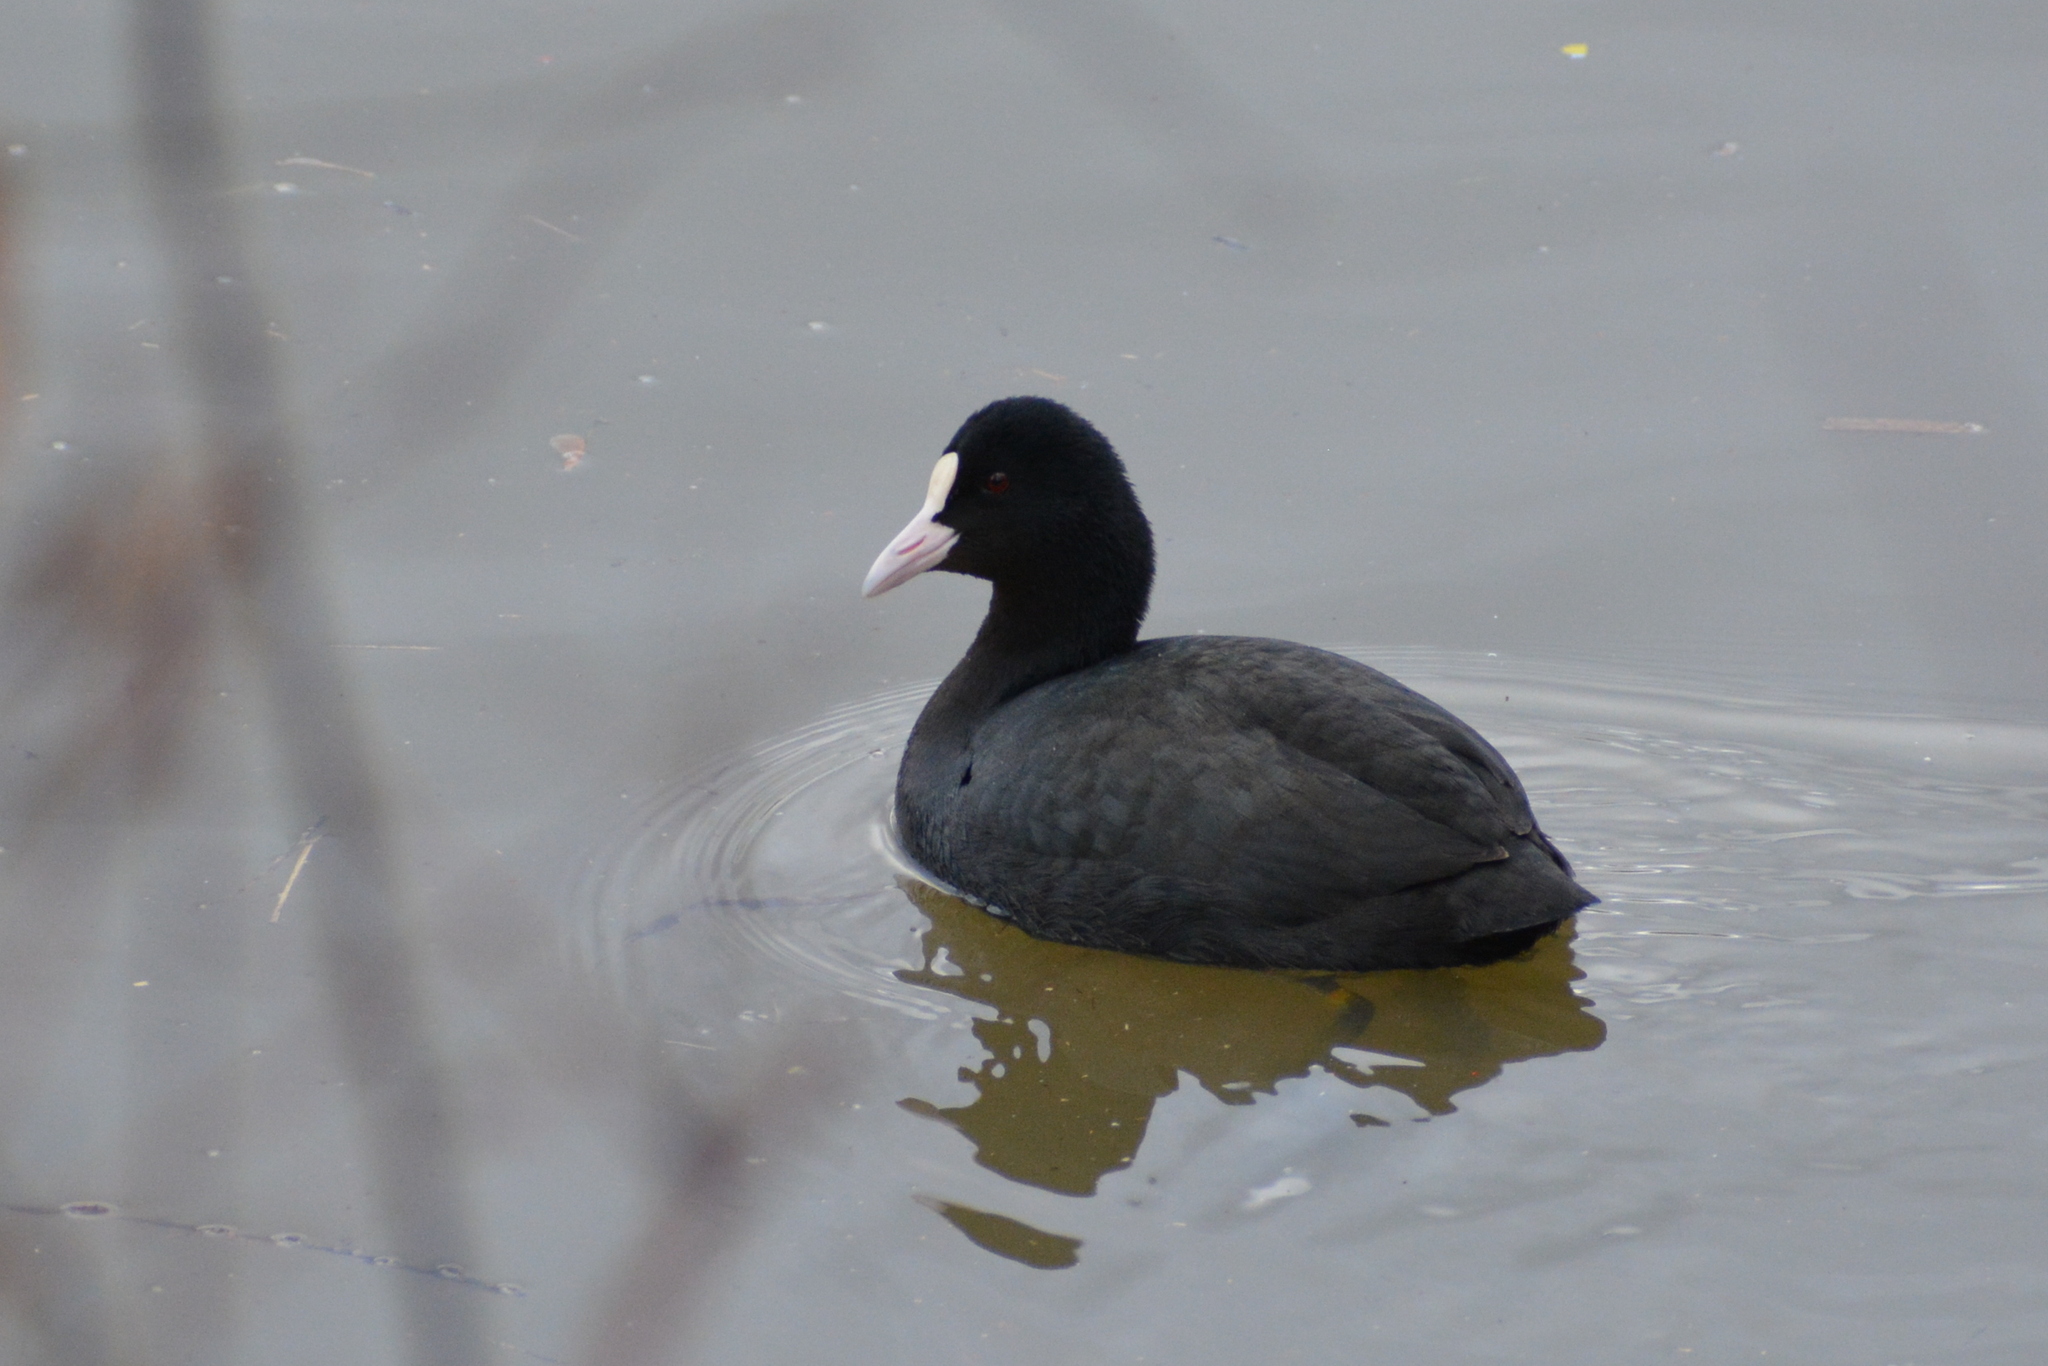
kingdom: Animalia
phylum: Chordata
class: Aves
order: Gruiformes
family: Rallidae
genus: Fulica
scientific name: Fulica atra
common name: Eurasian coot
